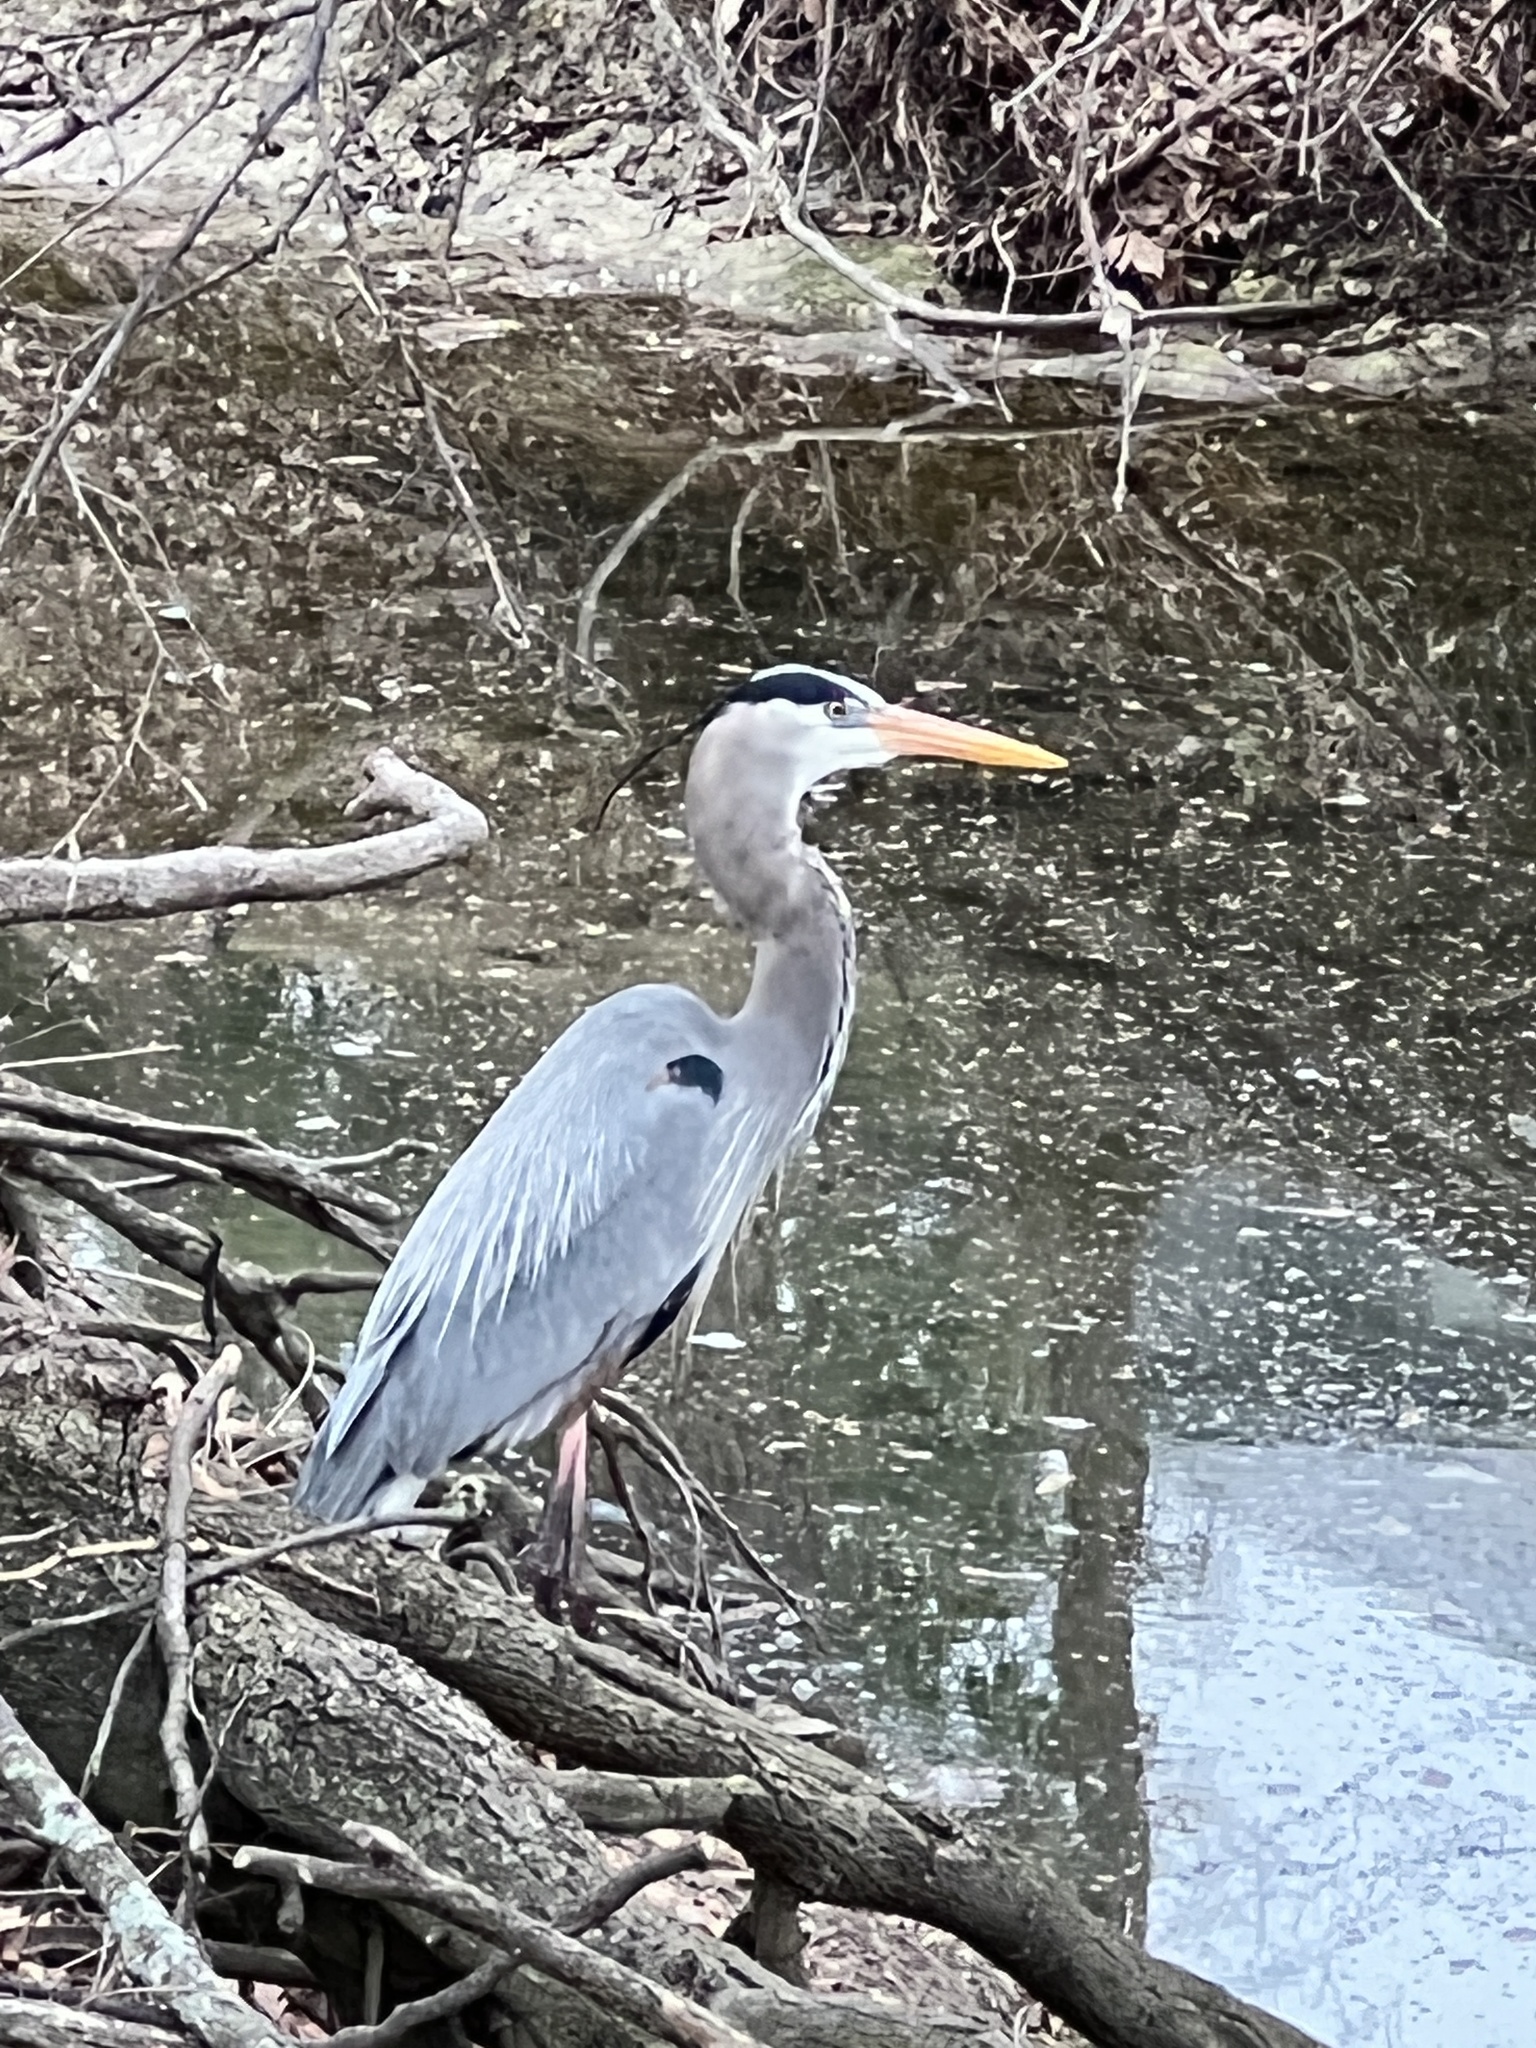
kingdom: Animalia
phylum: Chordata
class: Aves
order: Pelecaniformes
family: Ardeidae
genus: Ardea
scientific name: Ardea herodias
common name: Great blue heron
